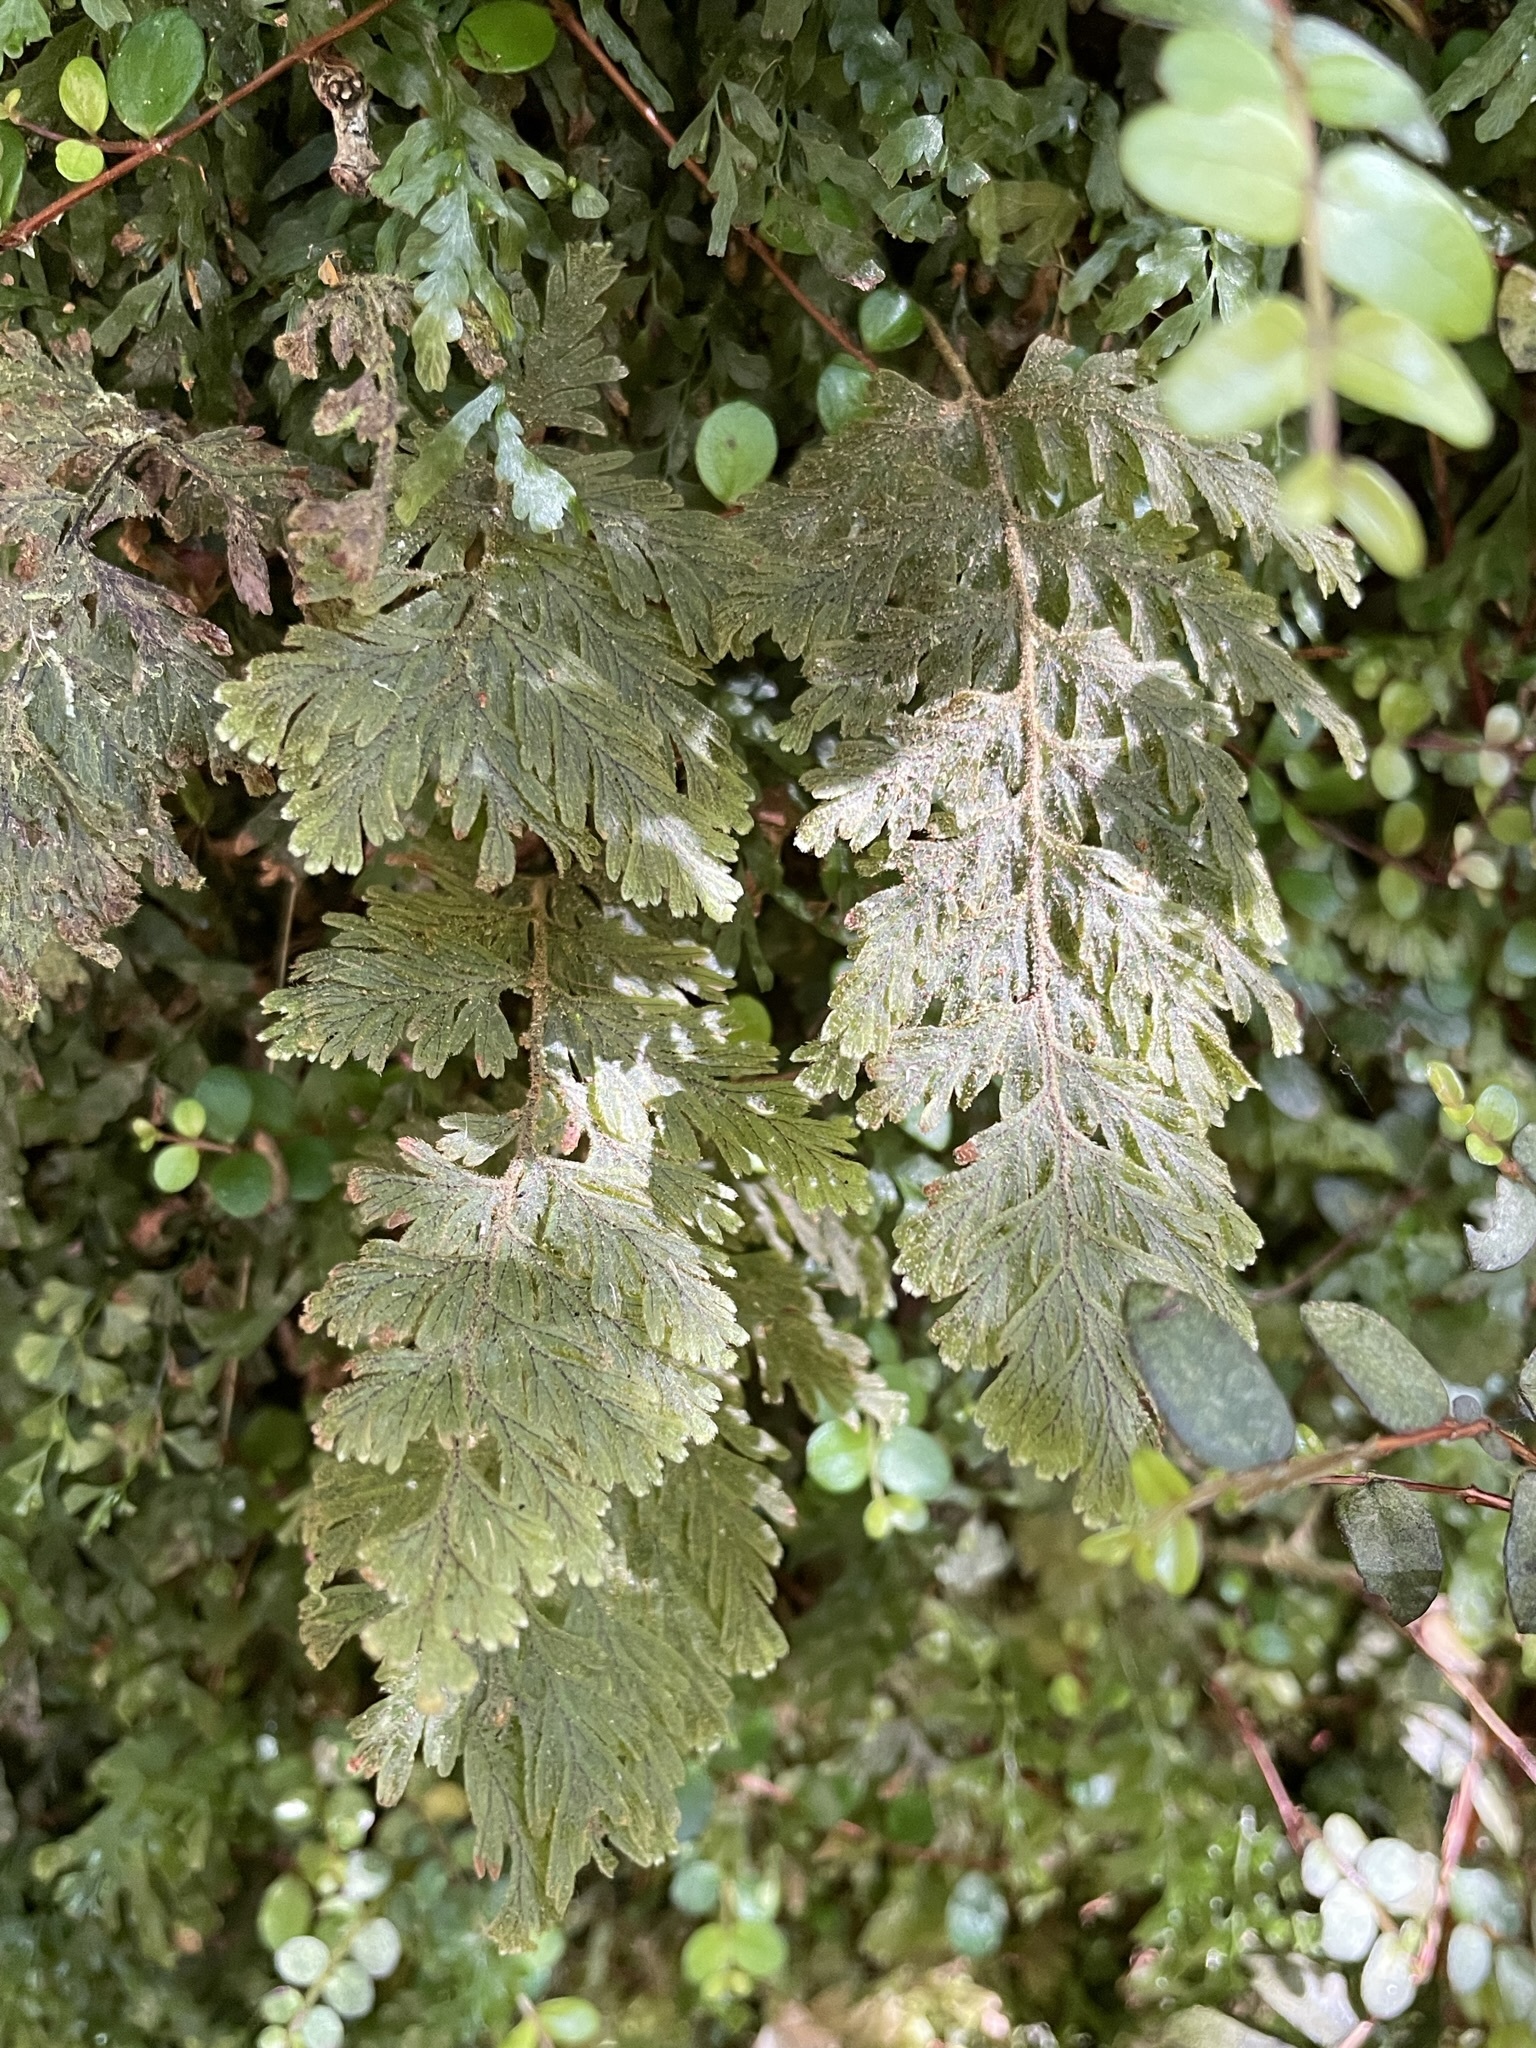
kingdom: Plantae
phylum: Tracheophyta
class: Polypodiopsida
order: Hymenophyllales
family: Hymenophyllaceae
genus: Hymenophyllum
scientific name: Hymenophyllum frankliniae
